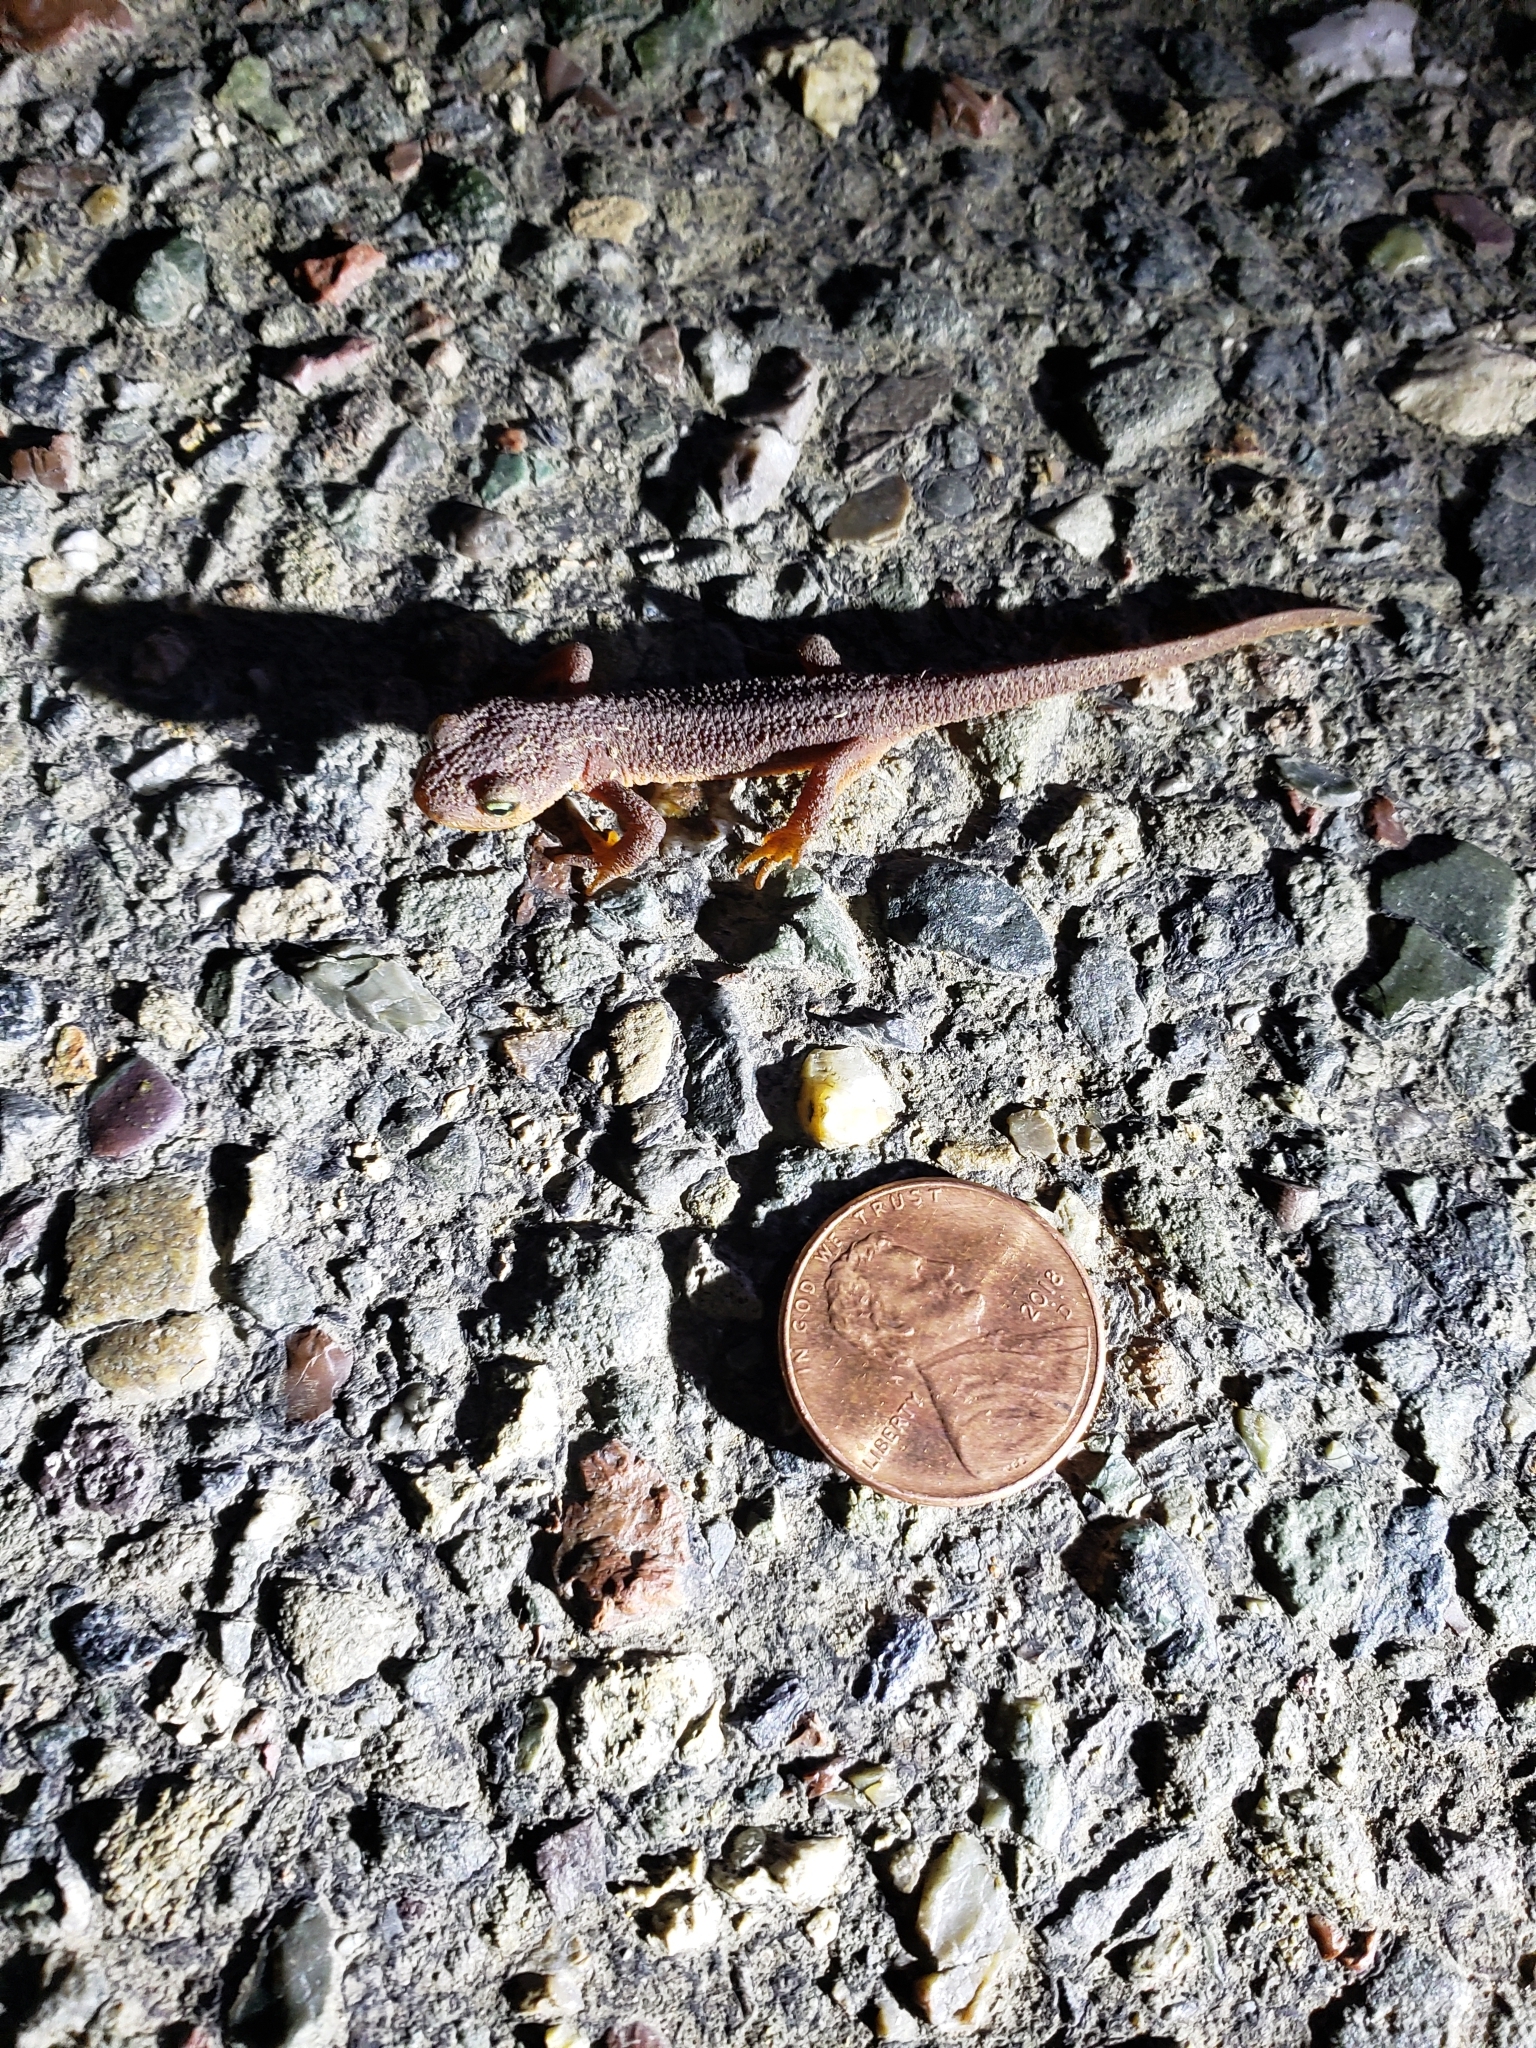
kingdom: Animalia
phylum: Chordata
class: Amphibia
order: Caudata
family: Salamandridae
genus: Taricha
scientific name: Taricha torosa
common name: California newt
